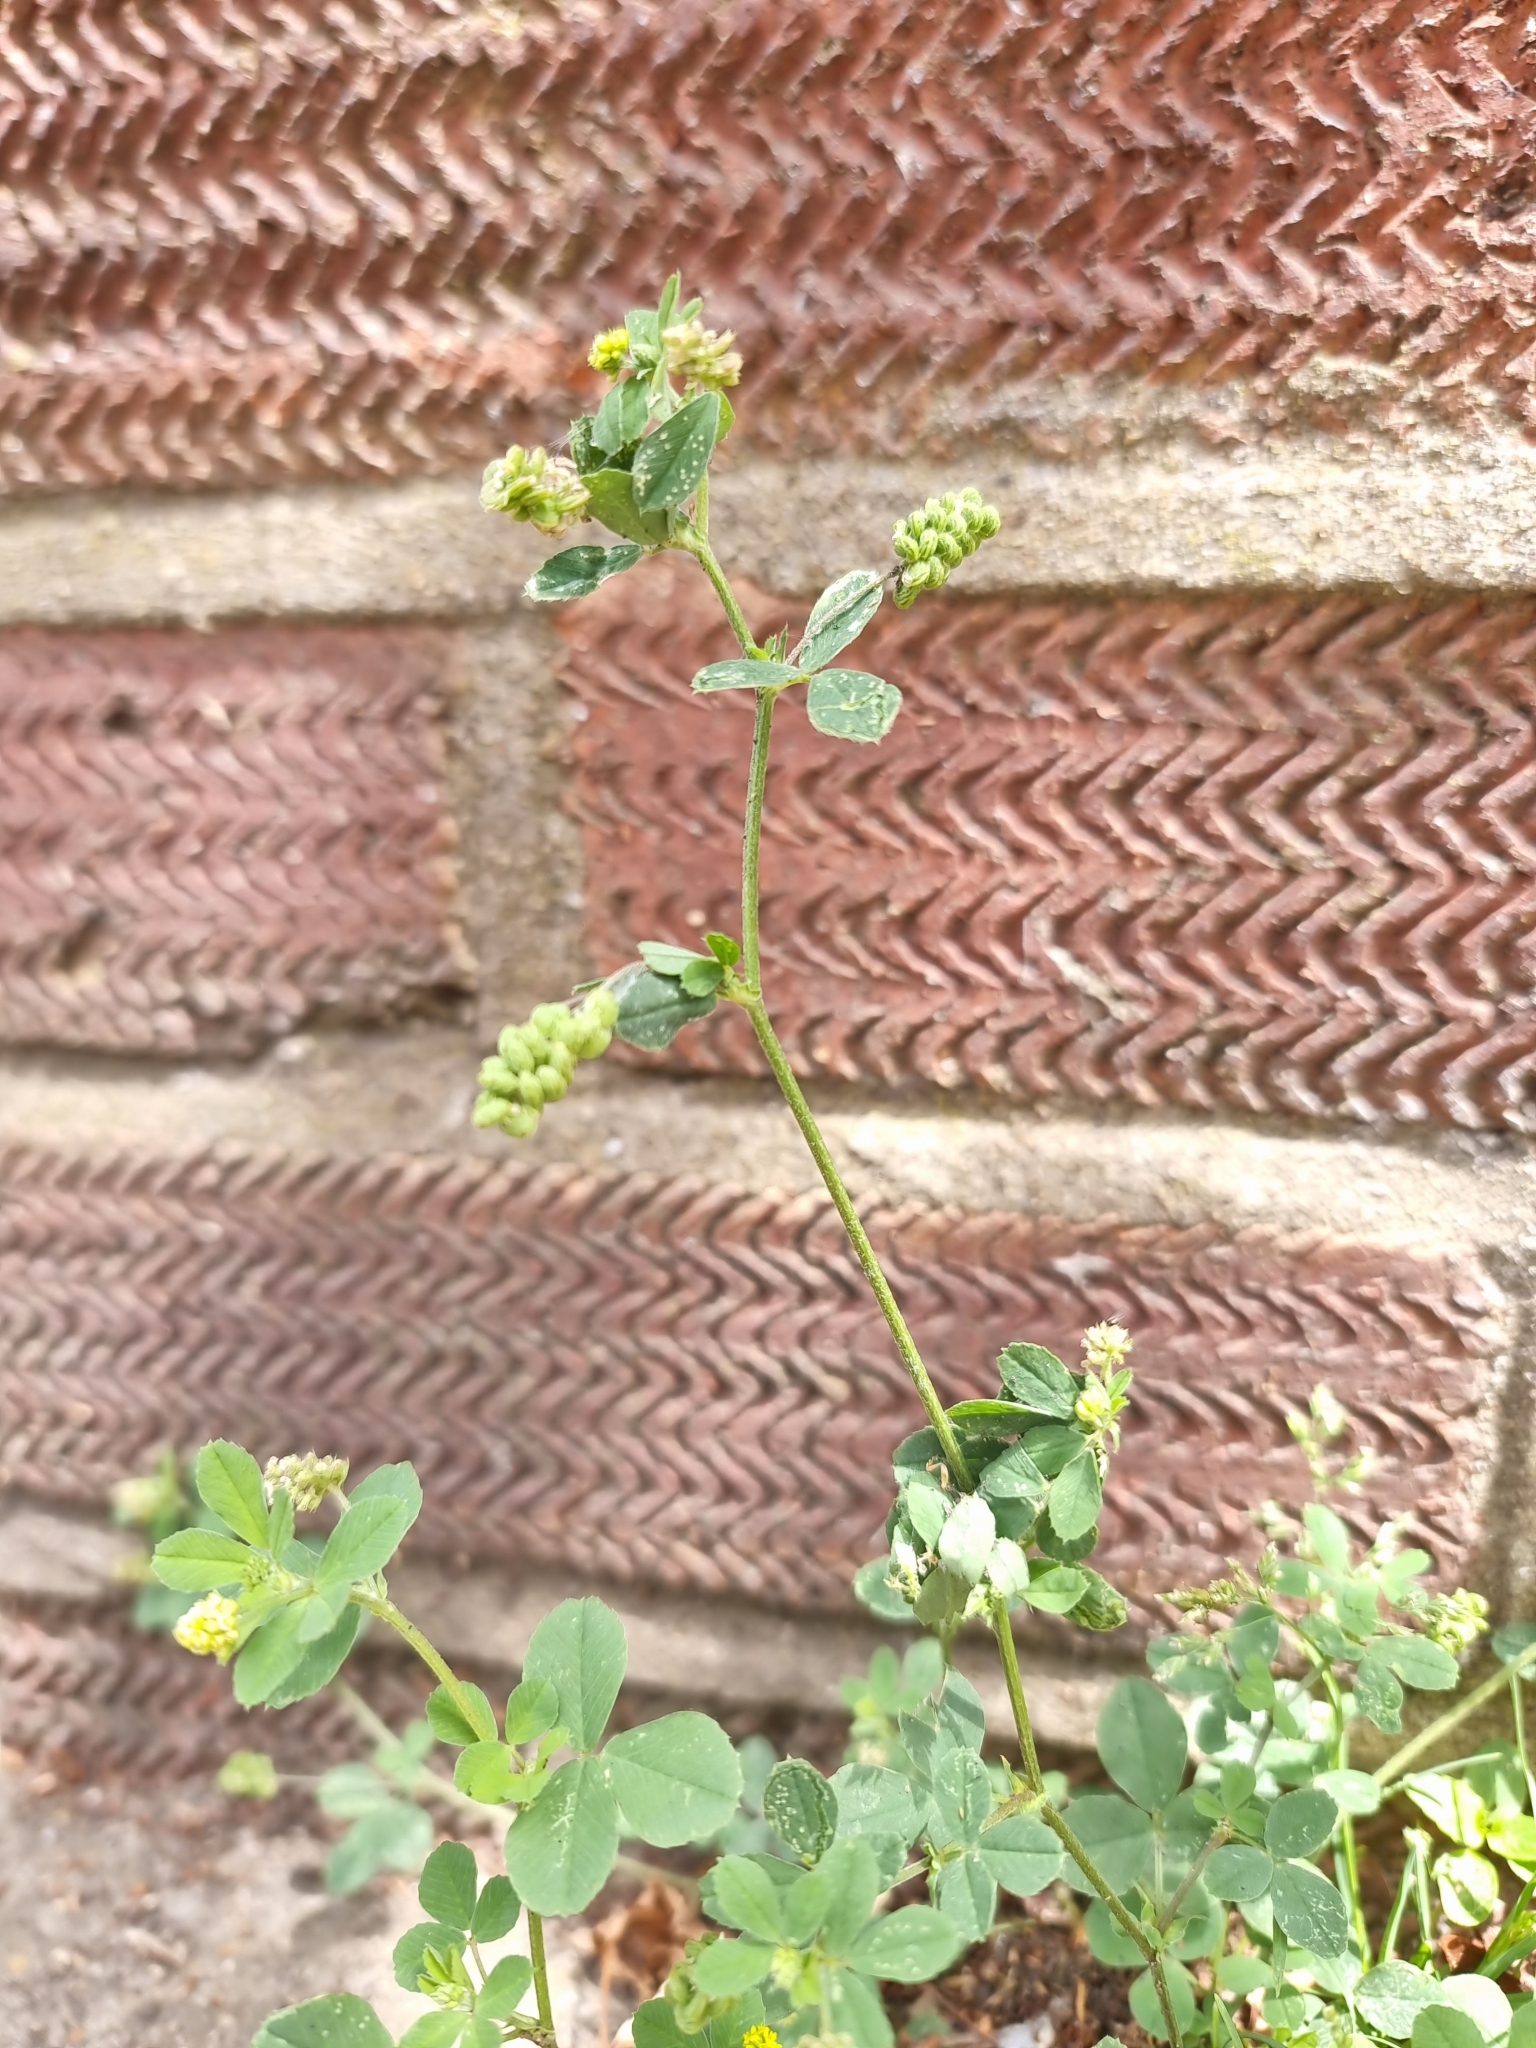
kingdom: Plantae
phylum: Tracheophyta
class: Magnoliopsida
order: Fabales
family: Fabaceae
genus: Medicago
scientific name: Medicago lupulina
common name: Black medick
